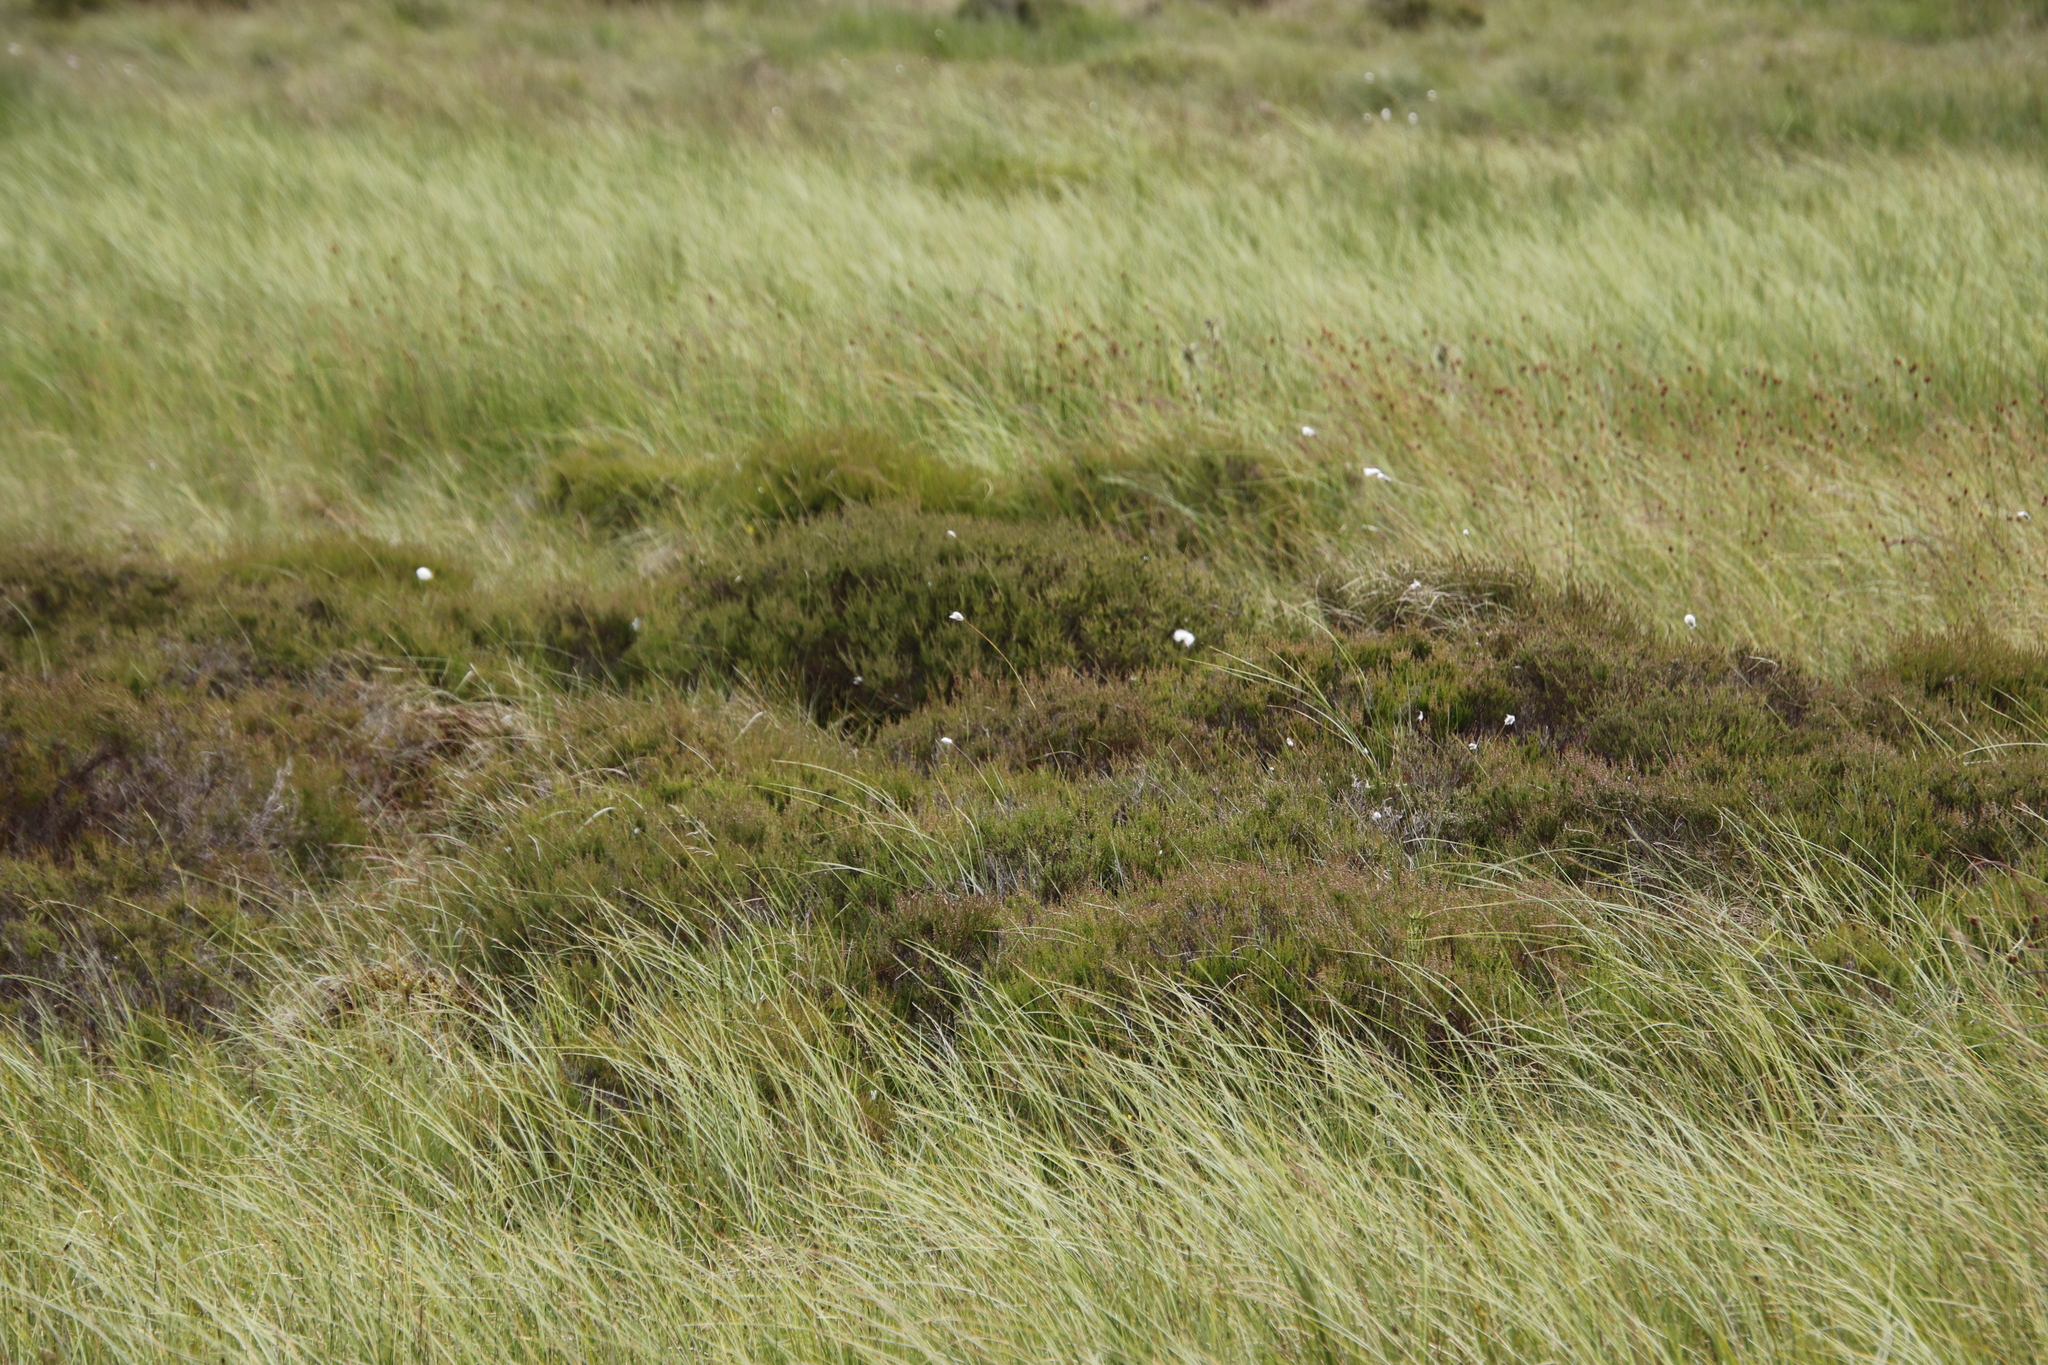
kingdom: Plantae
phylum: Tracheophyta
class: Magnoliopsida
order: Ericales
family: Ericaceae
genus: Calluna
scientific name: Calluna vulgaris
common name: Heather
